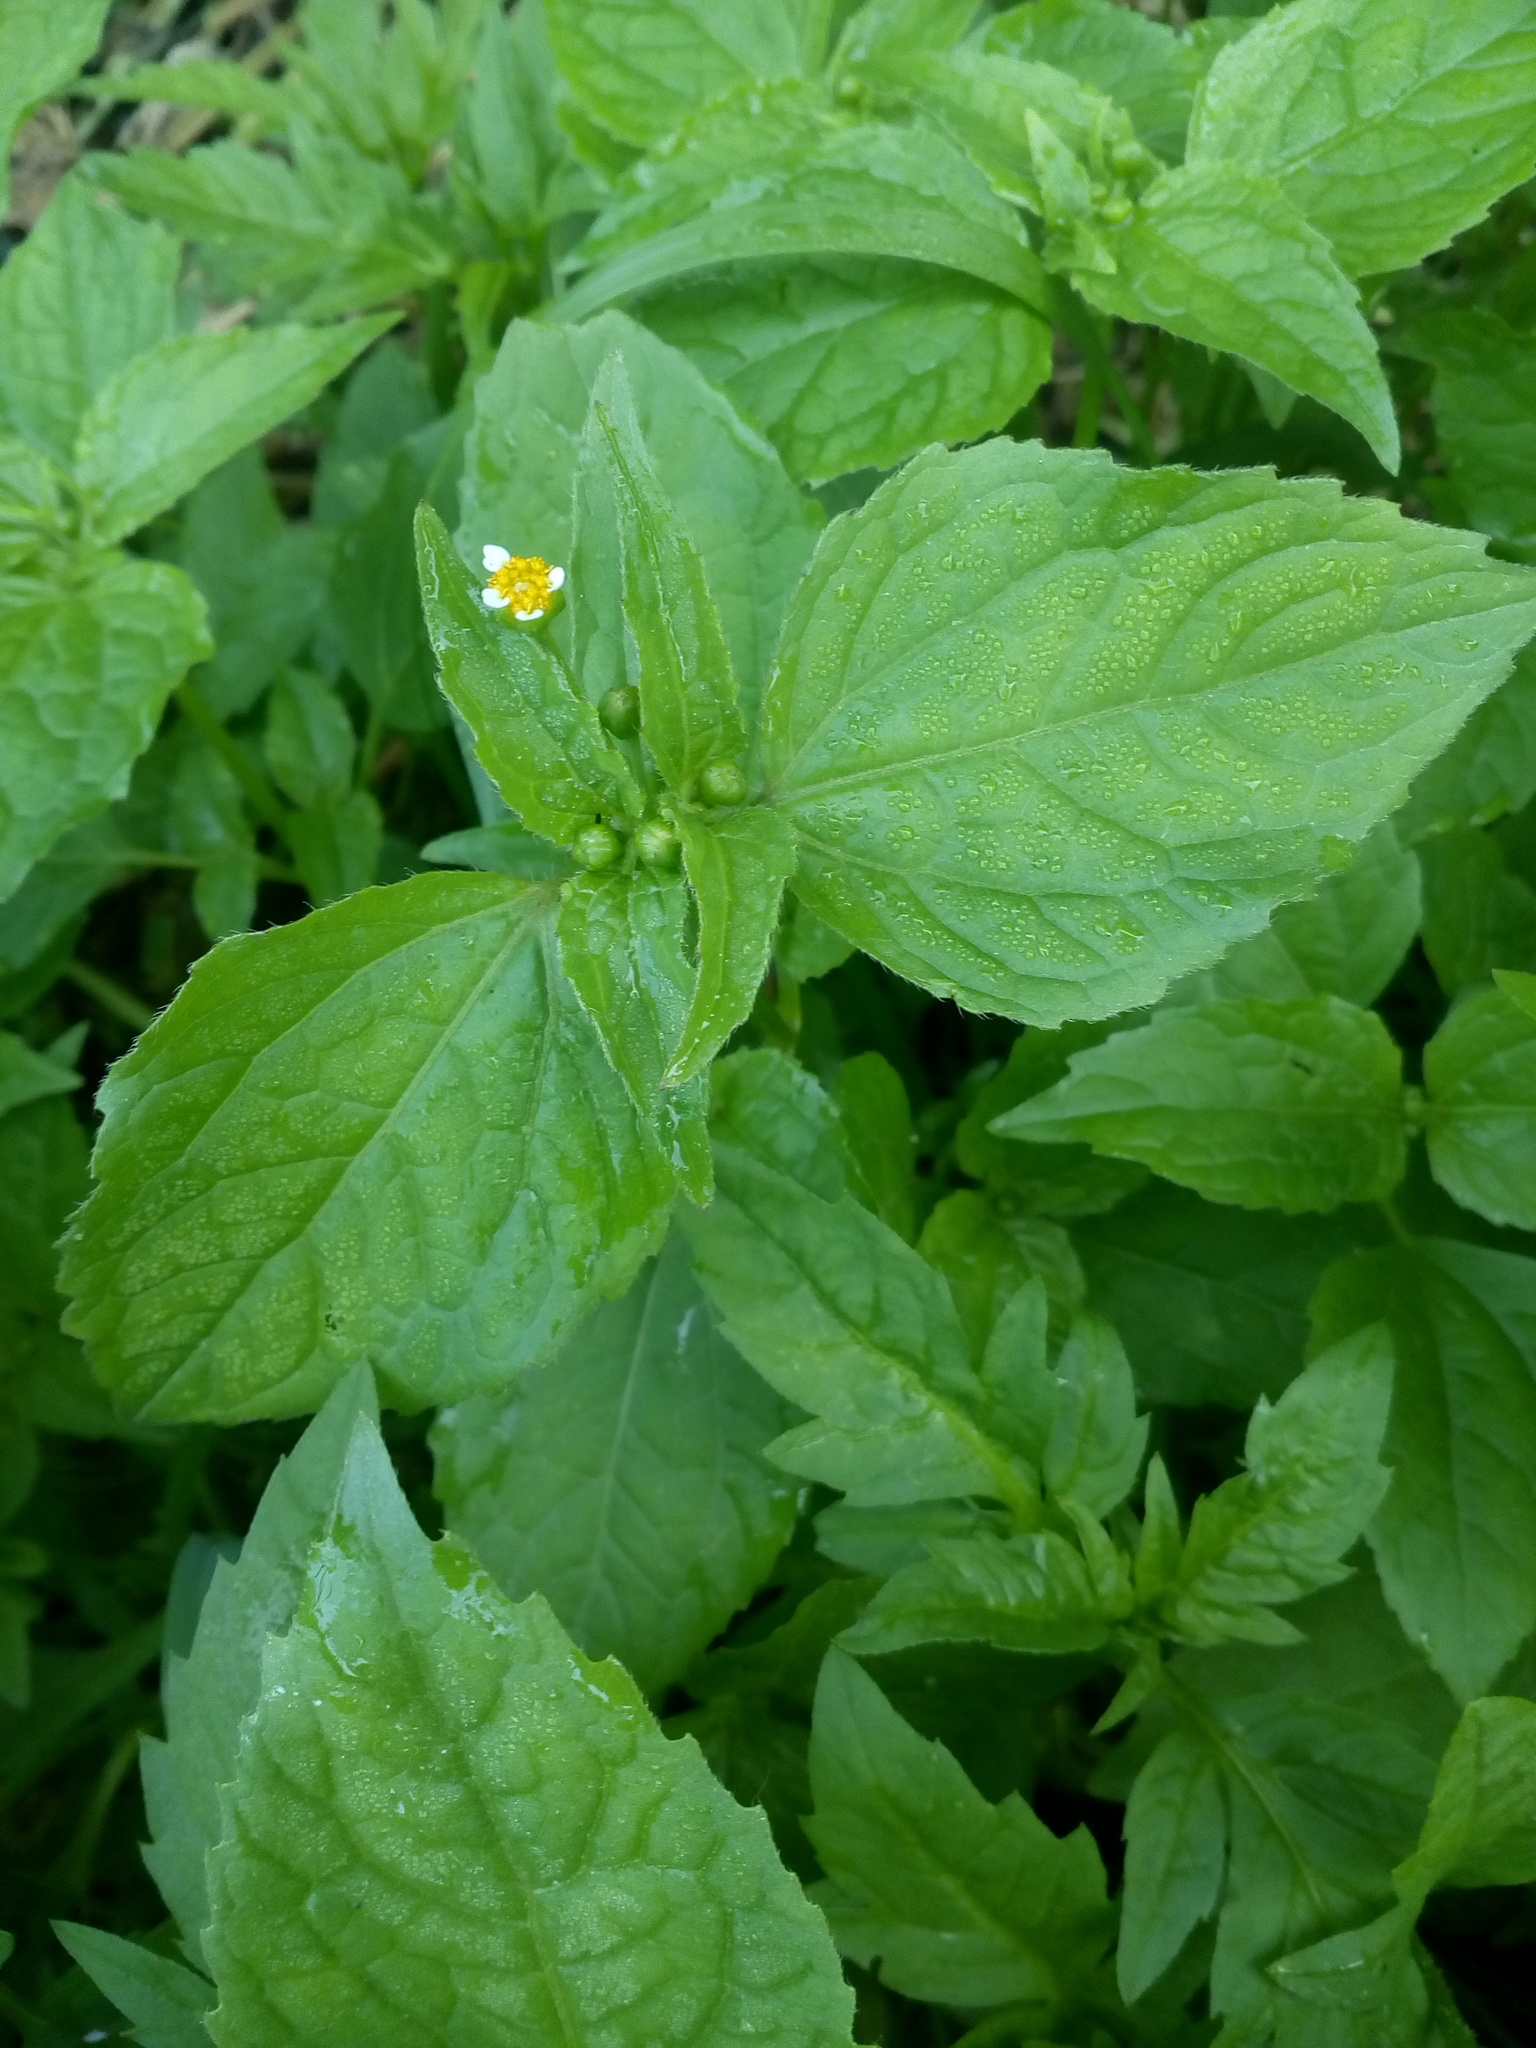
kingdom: Plantae
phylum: Tracheophyta
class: Magnoliopsida
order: Asterales
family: Asteraceae
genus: Galinsoga
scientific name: Galinsoga parviflora
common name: Gallant soldier
